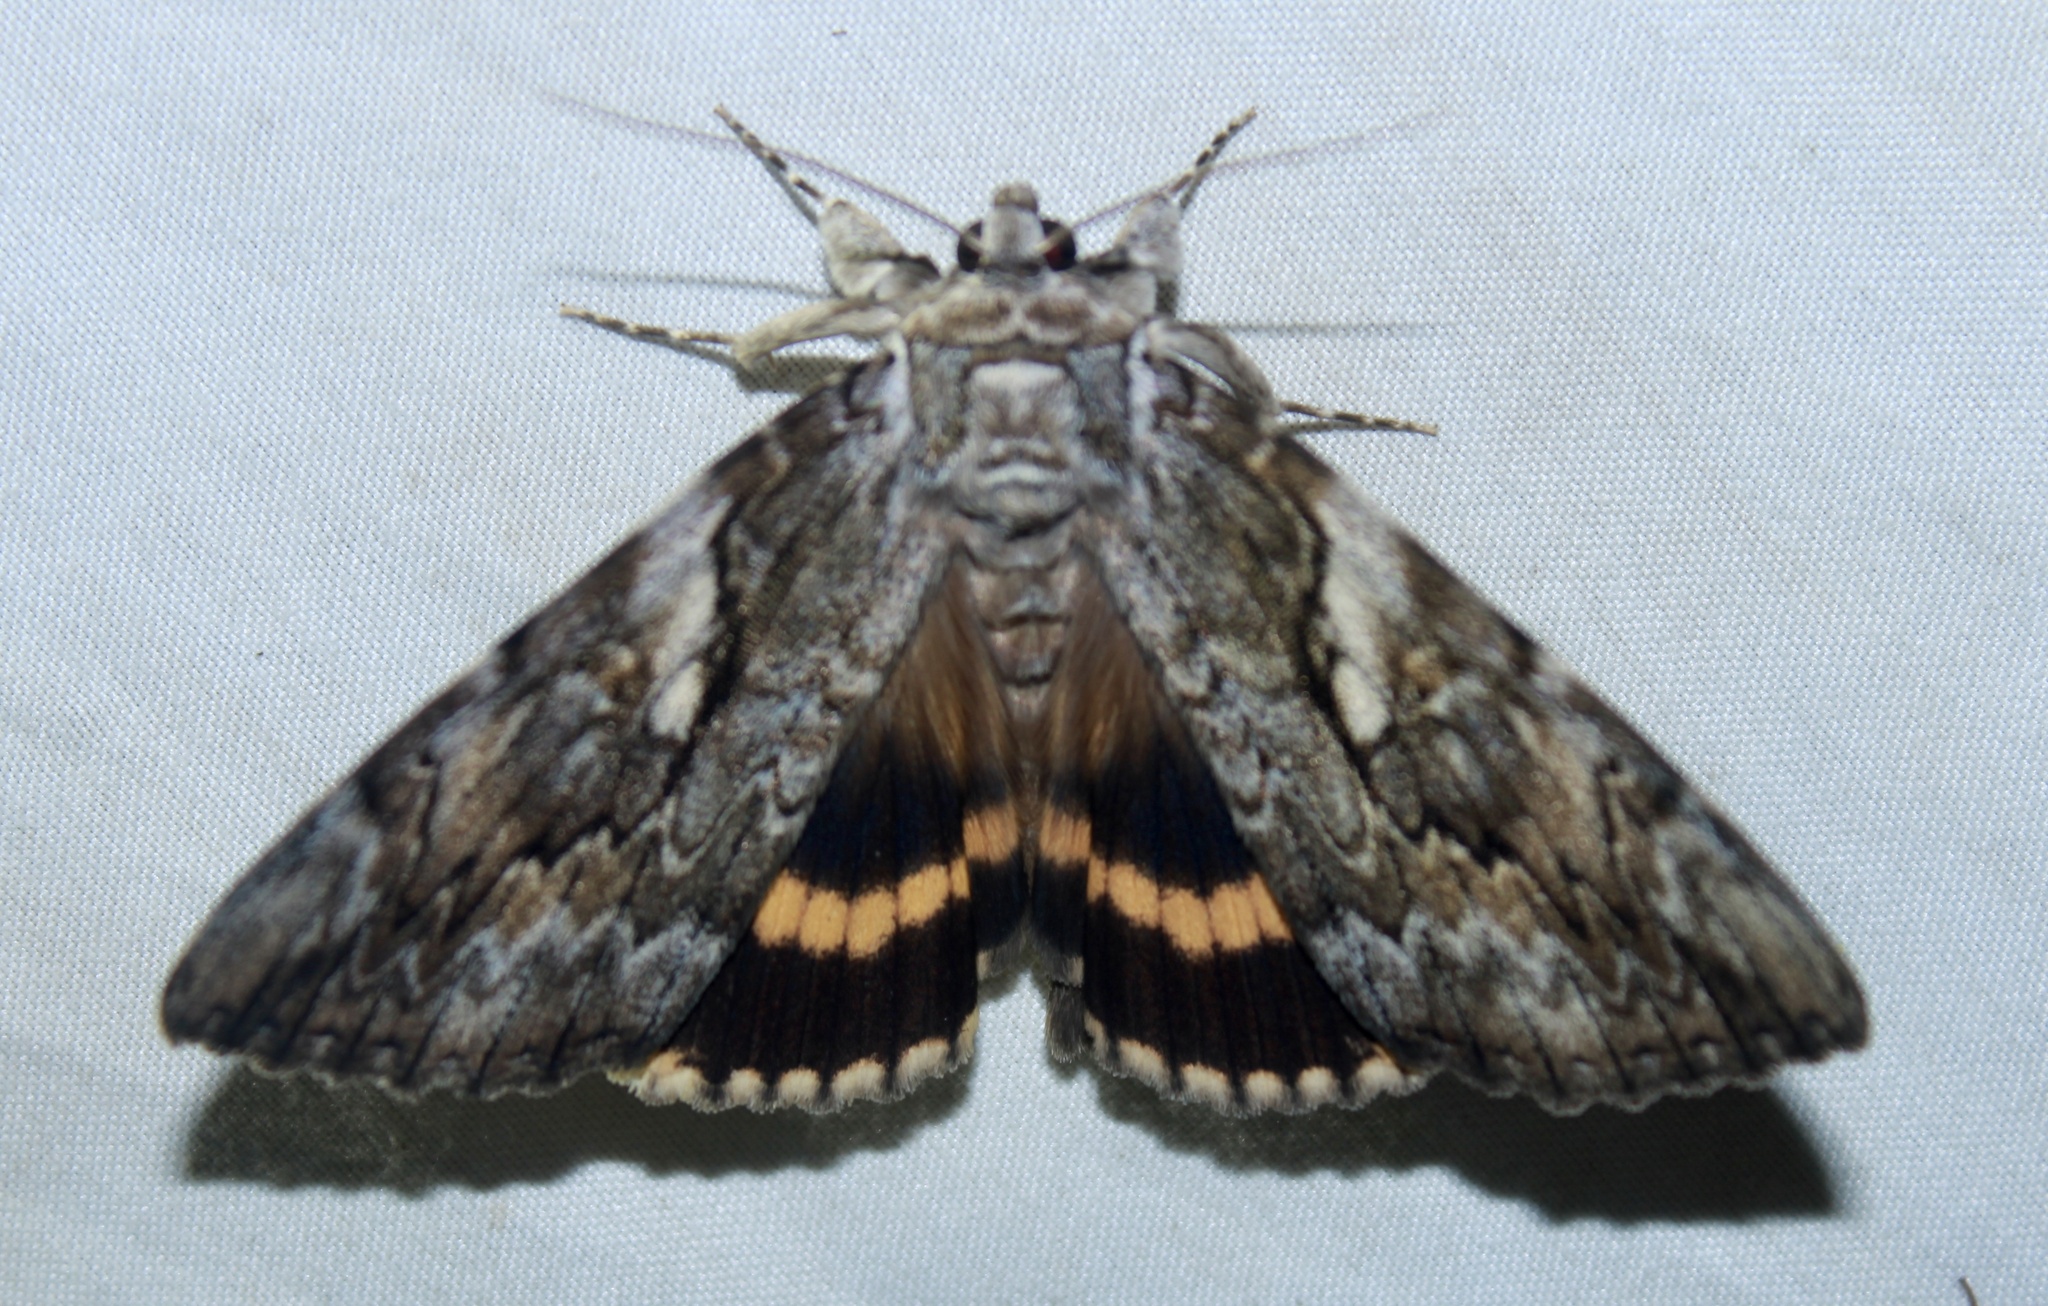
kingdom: Animalia
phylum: Arthropoda
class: Insecta
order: Lepidoptera
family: Erebidae
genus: Catocala
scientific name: Catocala cerogama
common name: Yellow banded underwing
